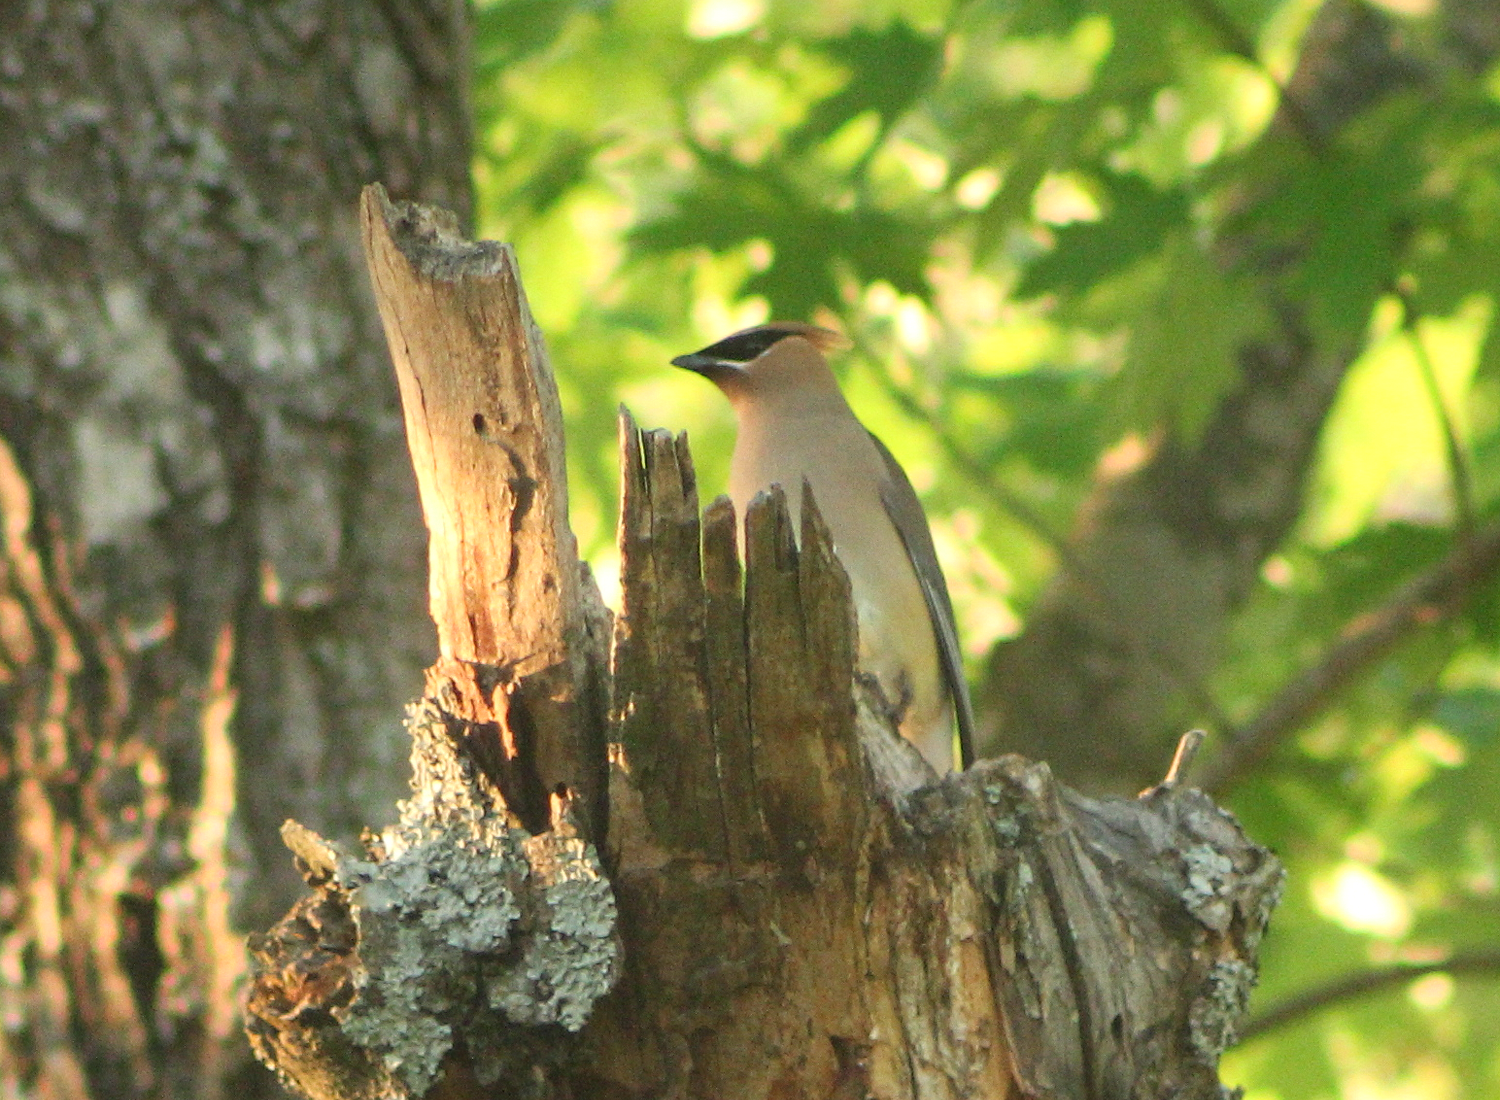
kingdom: Animalia
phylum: Chordata
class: Aves
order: Passeriformes
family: Bombycillidae
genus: Bombycilla
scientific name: Bombycilla cedrorum
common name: Cedar waxwing
